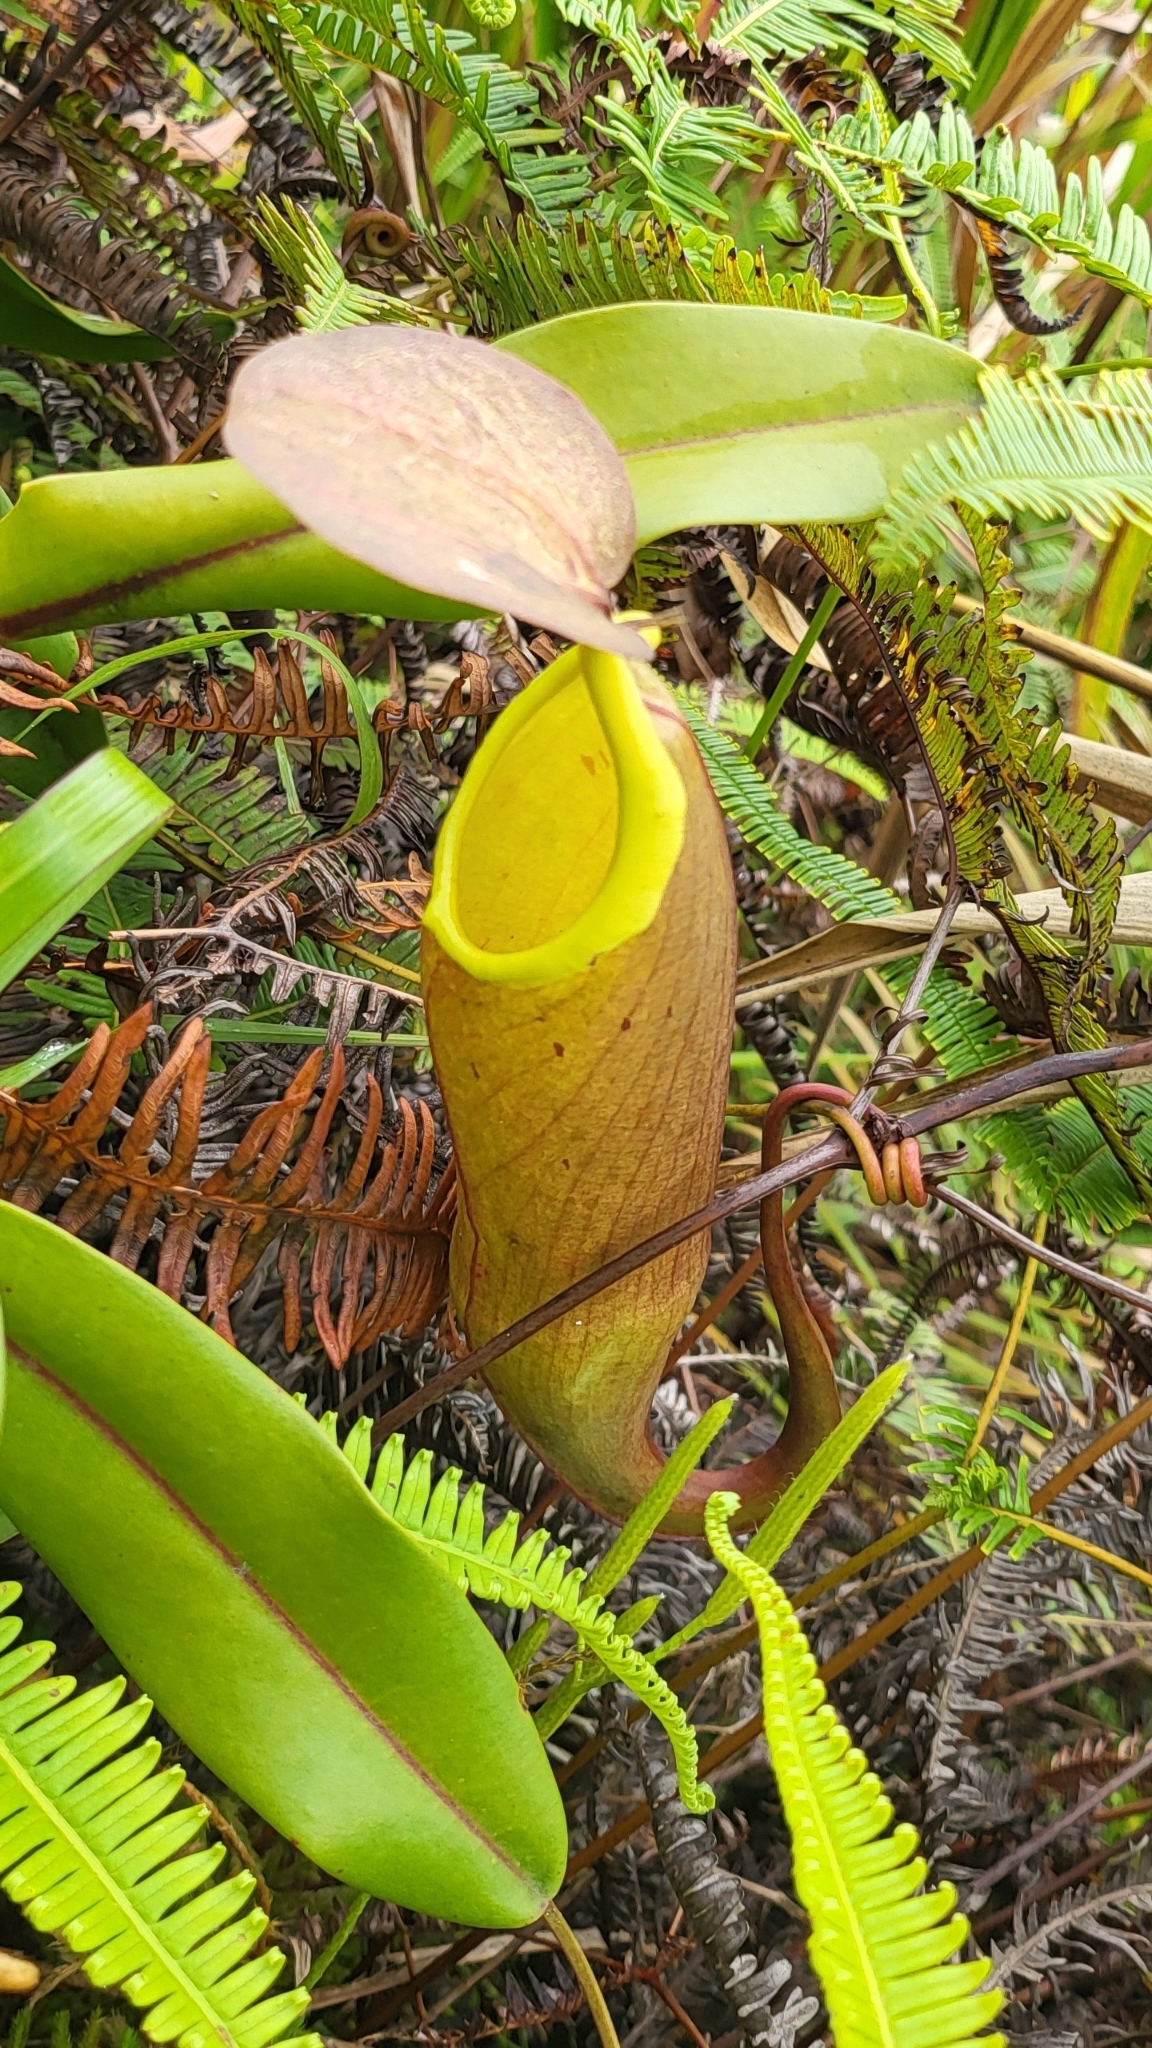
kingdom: Plantae
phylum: Tracheophyta
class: Magnoliopsida
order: Caryophyllales
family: Nepenthaceae
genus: Nepenthes
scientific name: Nepenthes sanguinea
